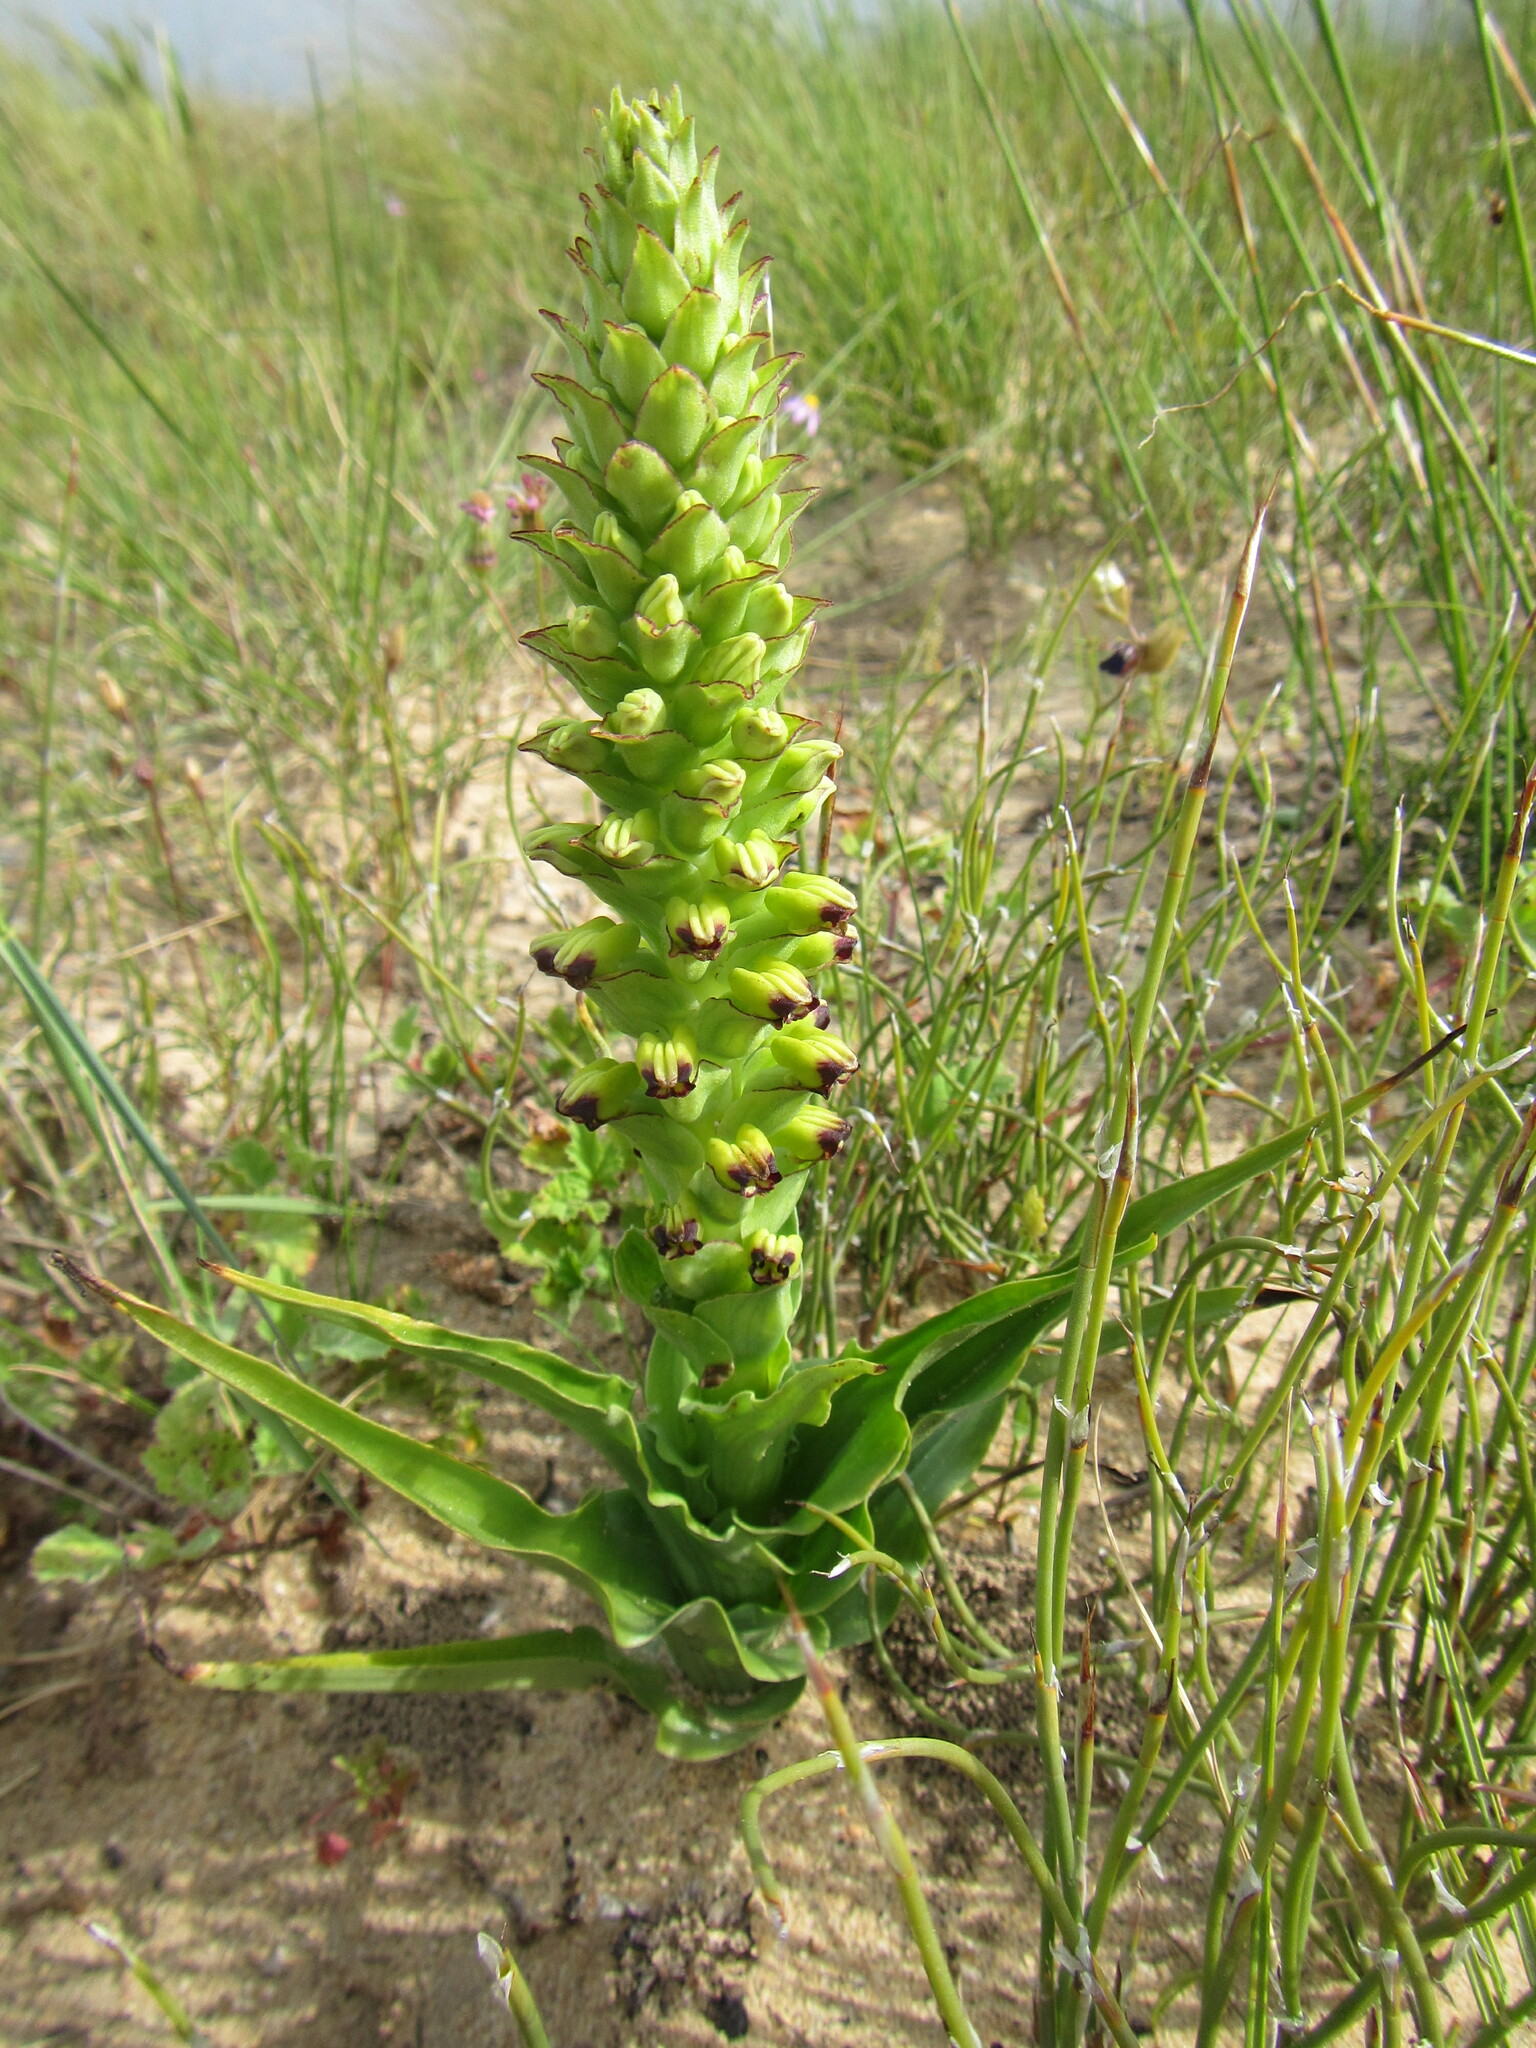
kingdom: Plantae
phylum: Tracheophyta
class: Liliopsida
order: Asparagales
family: Orchidaceae
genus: Corycium
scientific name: Corycium orobanchoides
